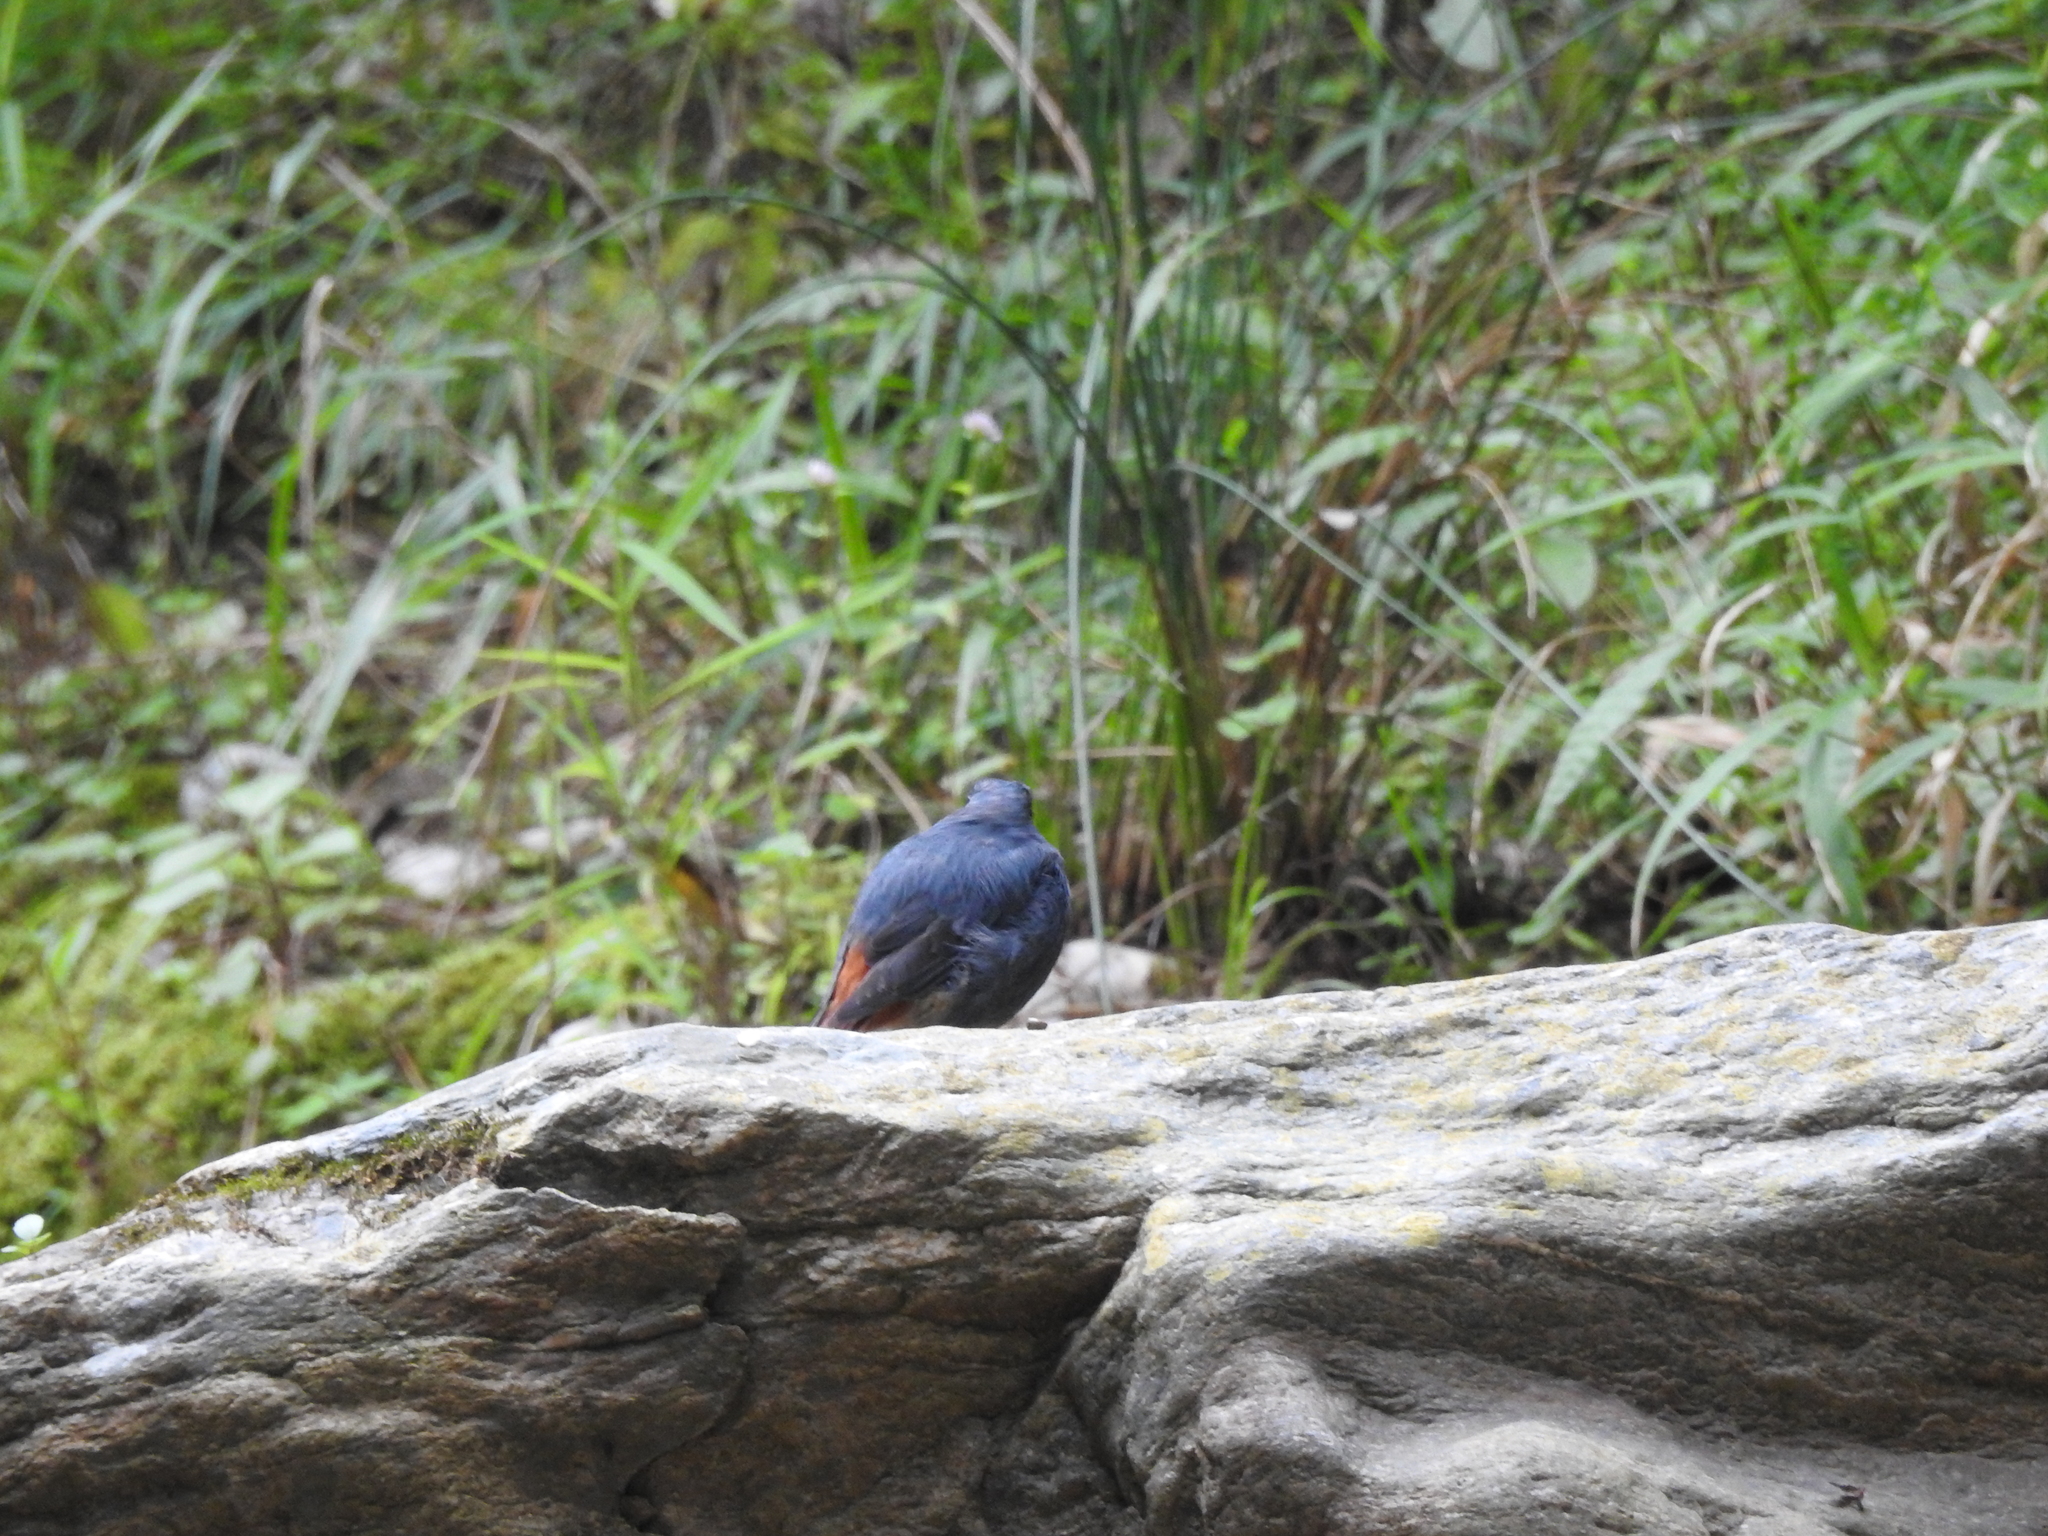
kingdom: Animalia
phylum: Chordata
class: Aves
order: Passeriformes
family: Muscicapidae
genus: Phoenicurus
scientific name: Phoenicurus fuliginosus
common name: Plumbeous water redstart
